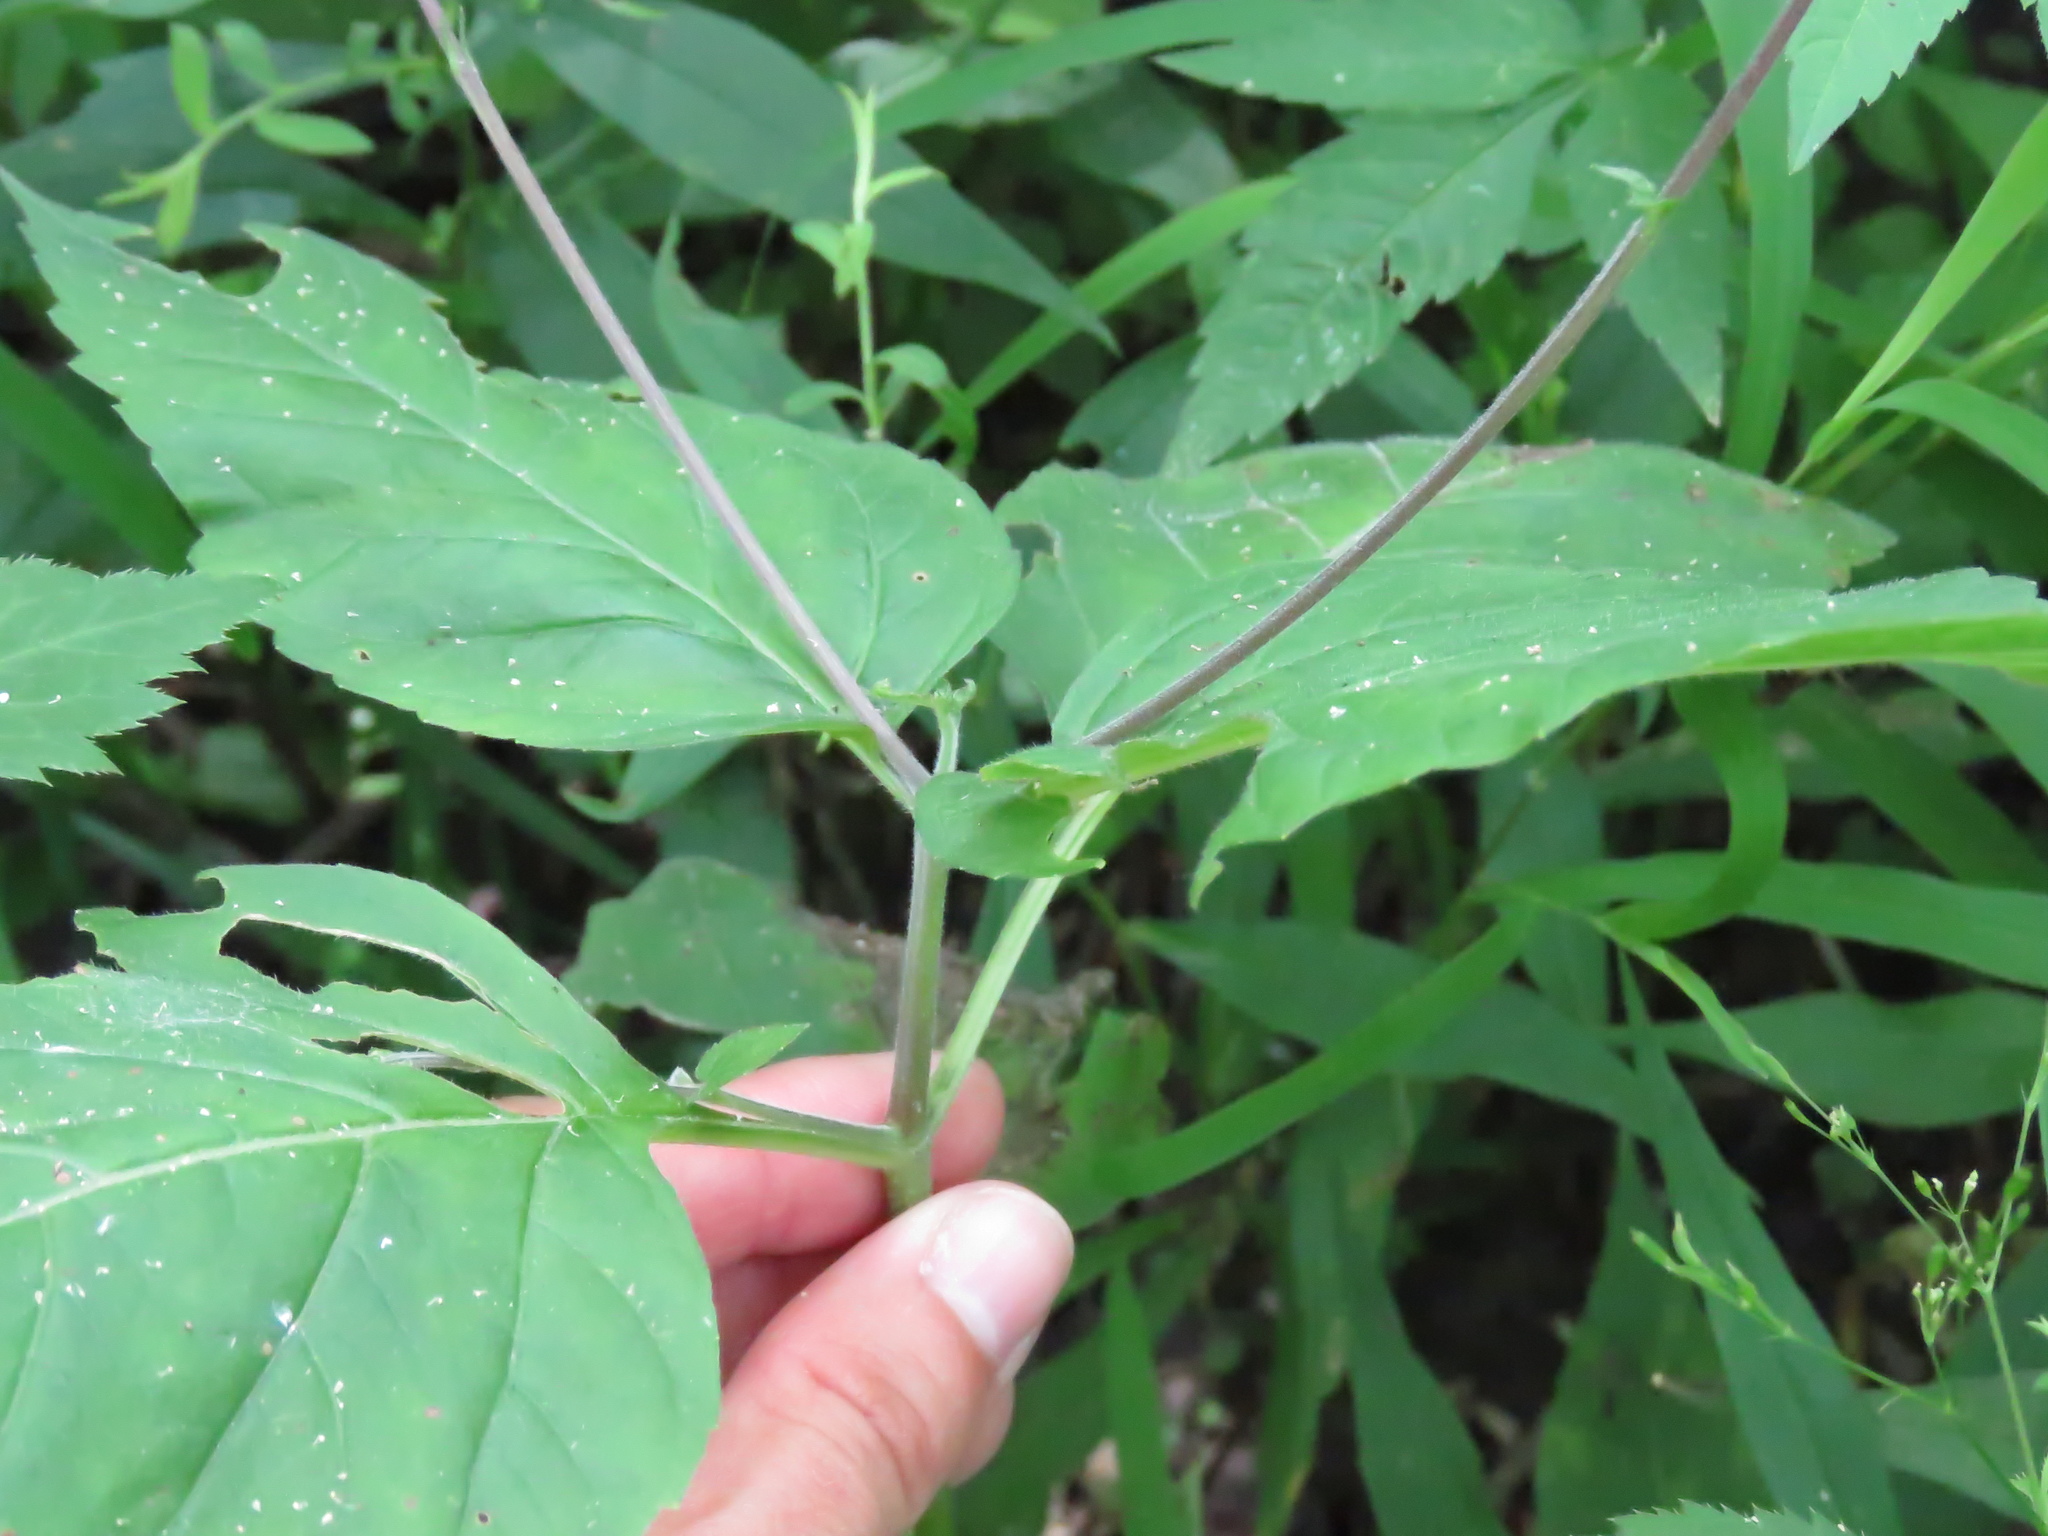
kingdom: Plantae
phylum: Tracheophyta
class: Magnoliopsida
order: Lamiales
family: Phrymaceae
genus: Phryma
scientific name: Phryma leptostachya
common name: American lopseed
